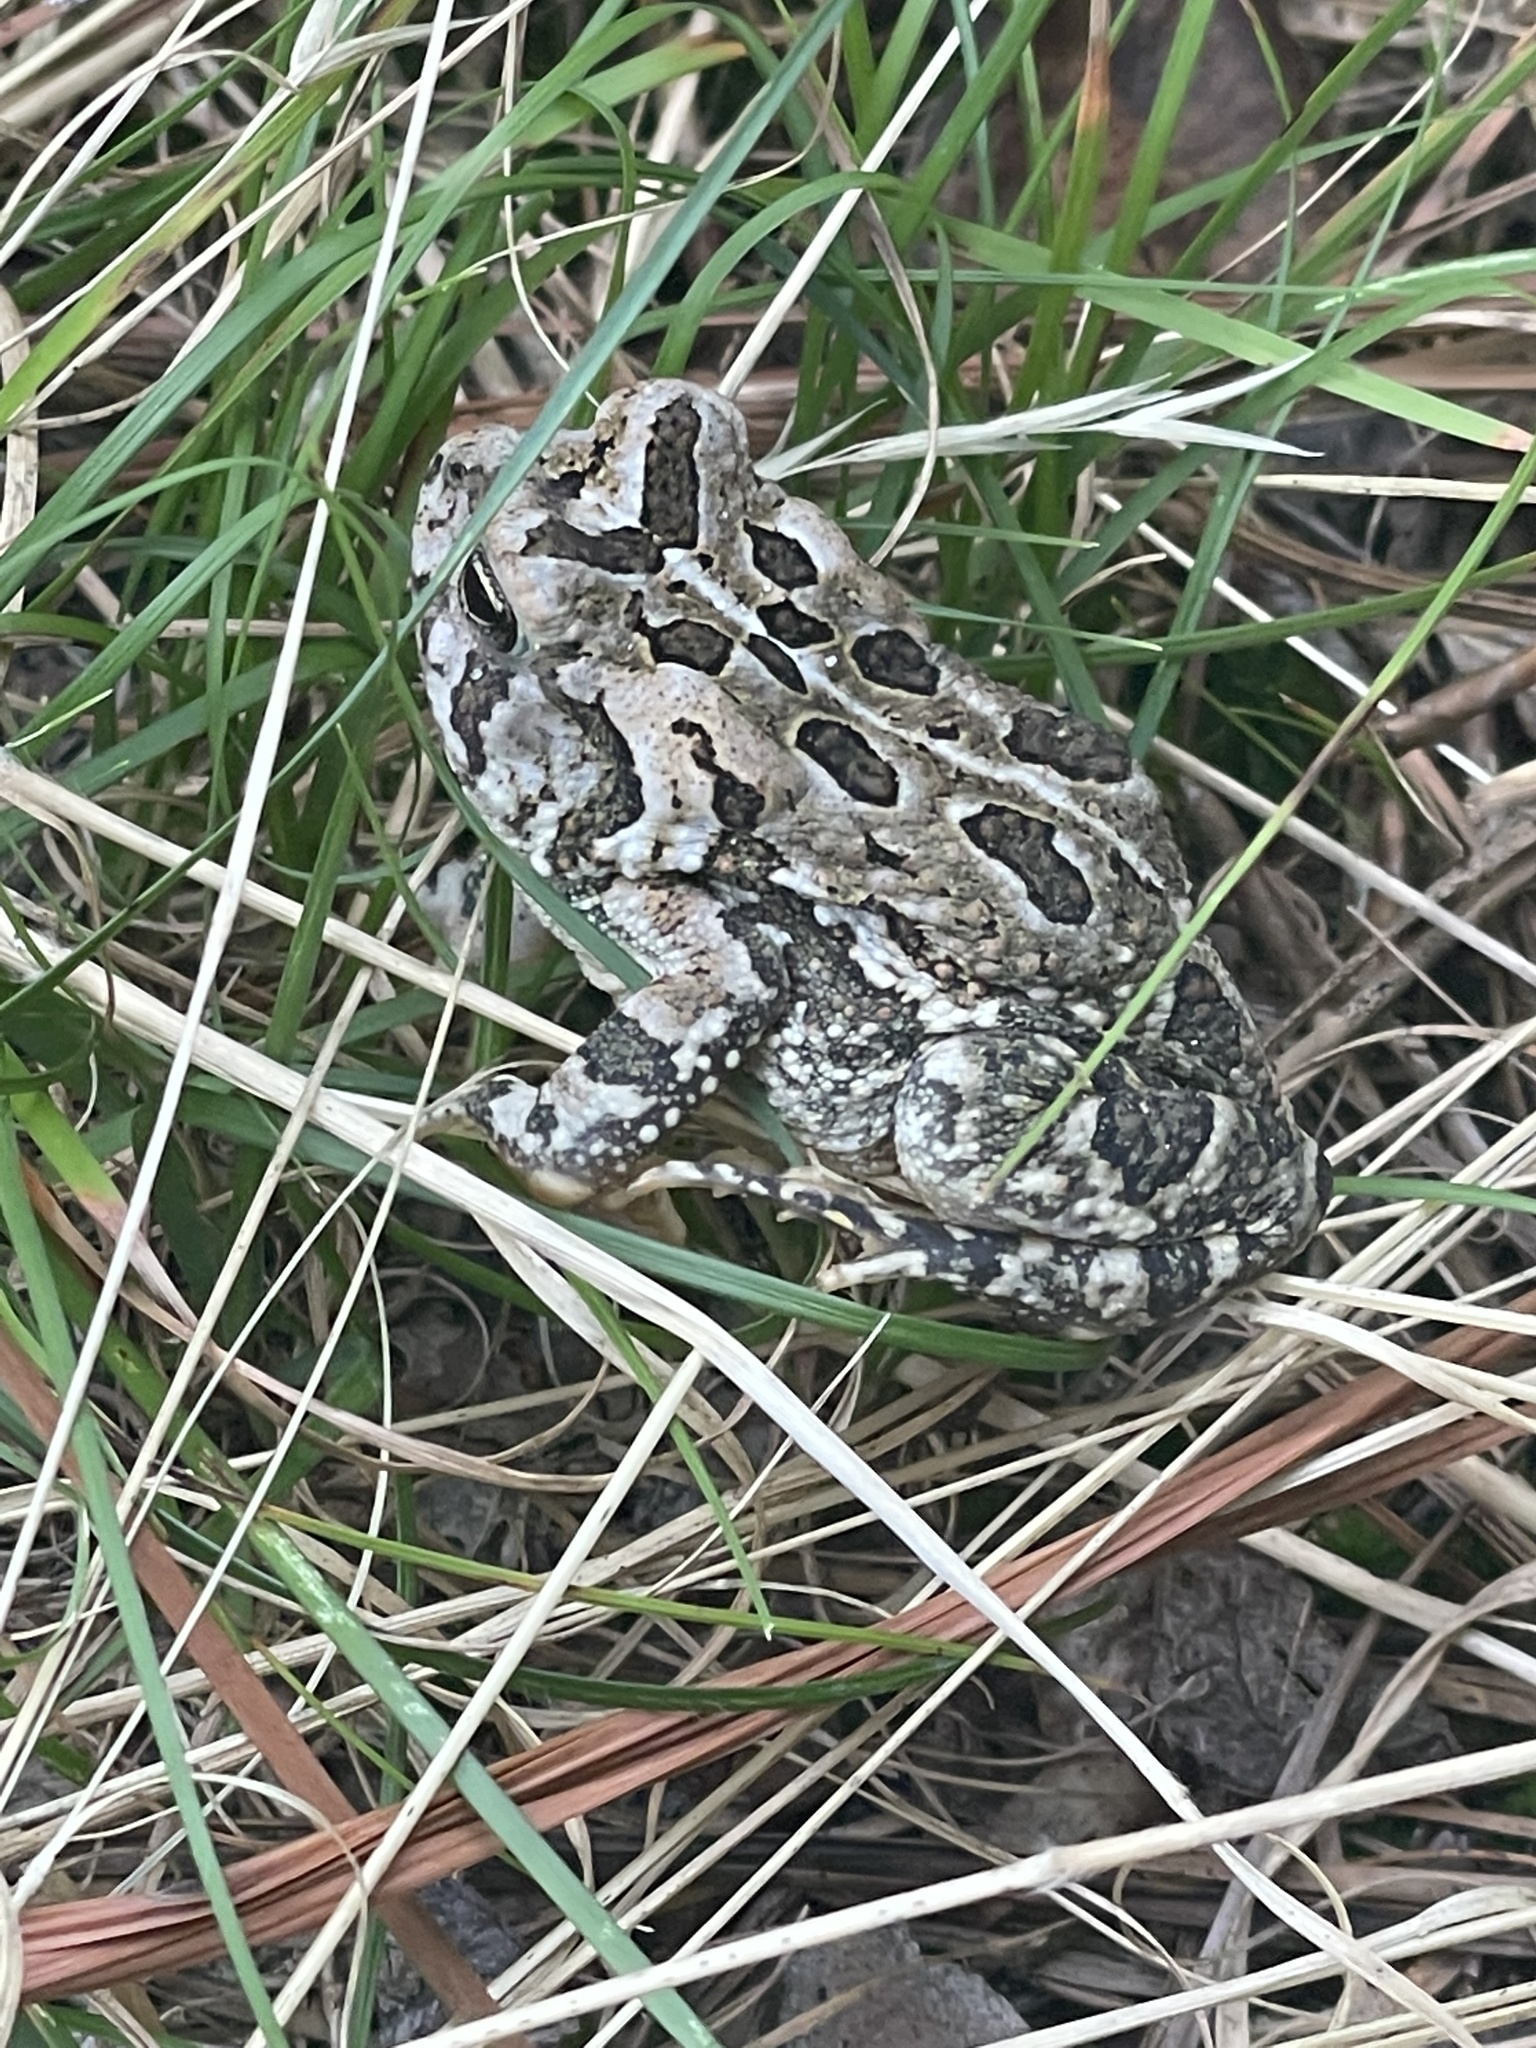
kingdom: Animalia
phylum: Chordata
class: Amphibia
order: Anura
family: Bufonidae
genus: Anaxyrus
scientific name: Anaxyrus fowleri
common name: Fowler's toad
